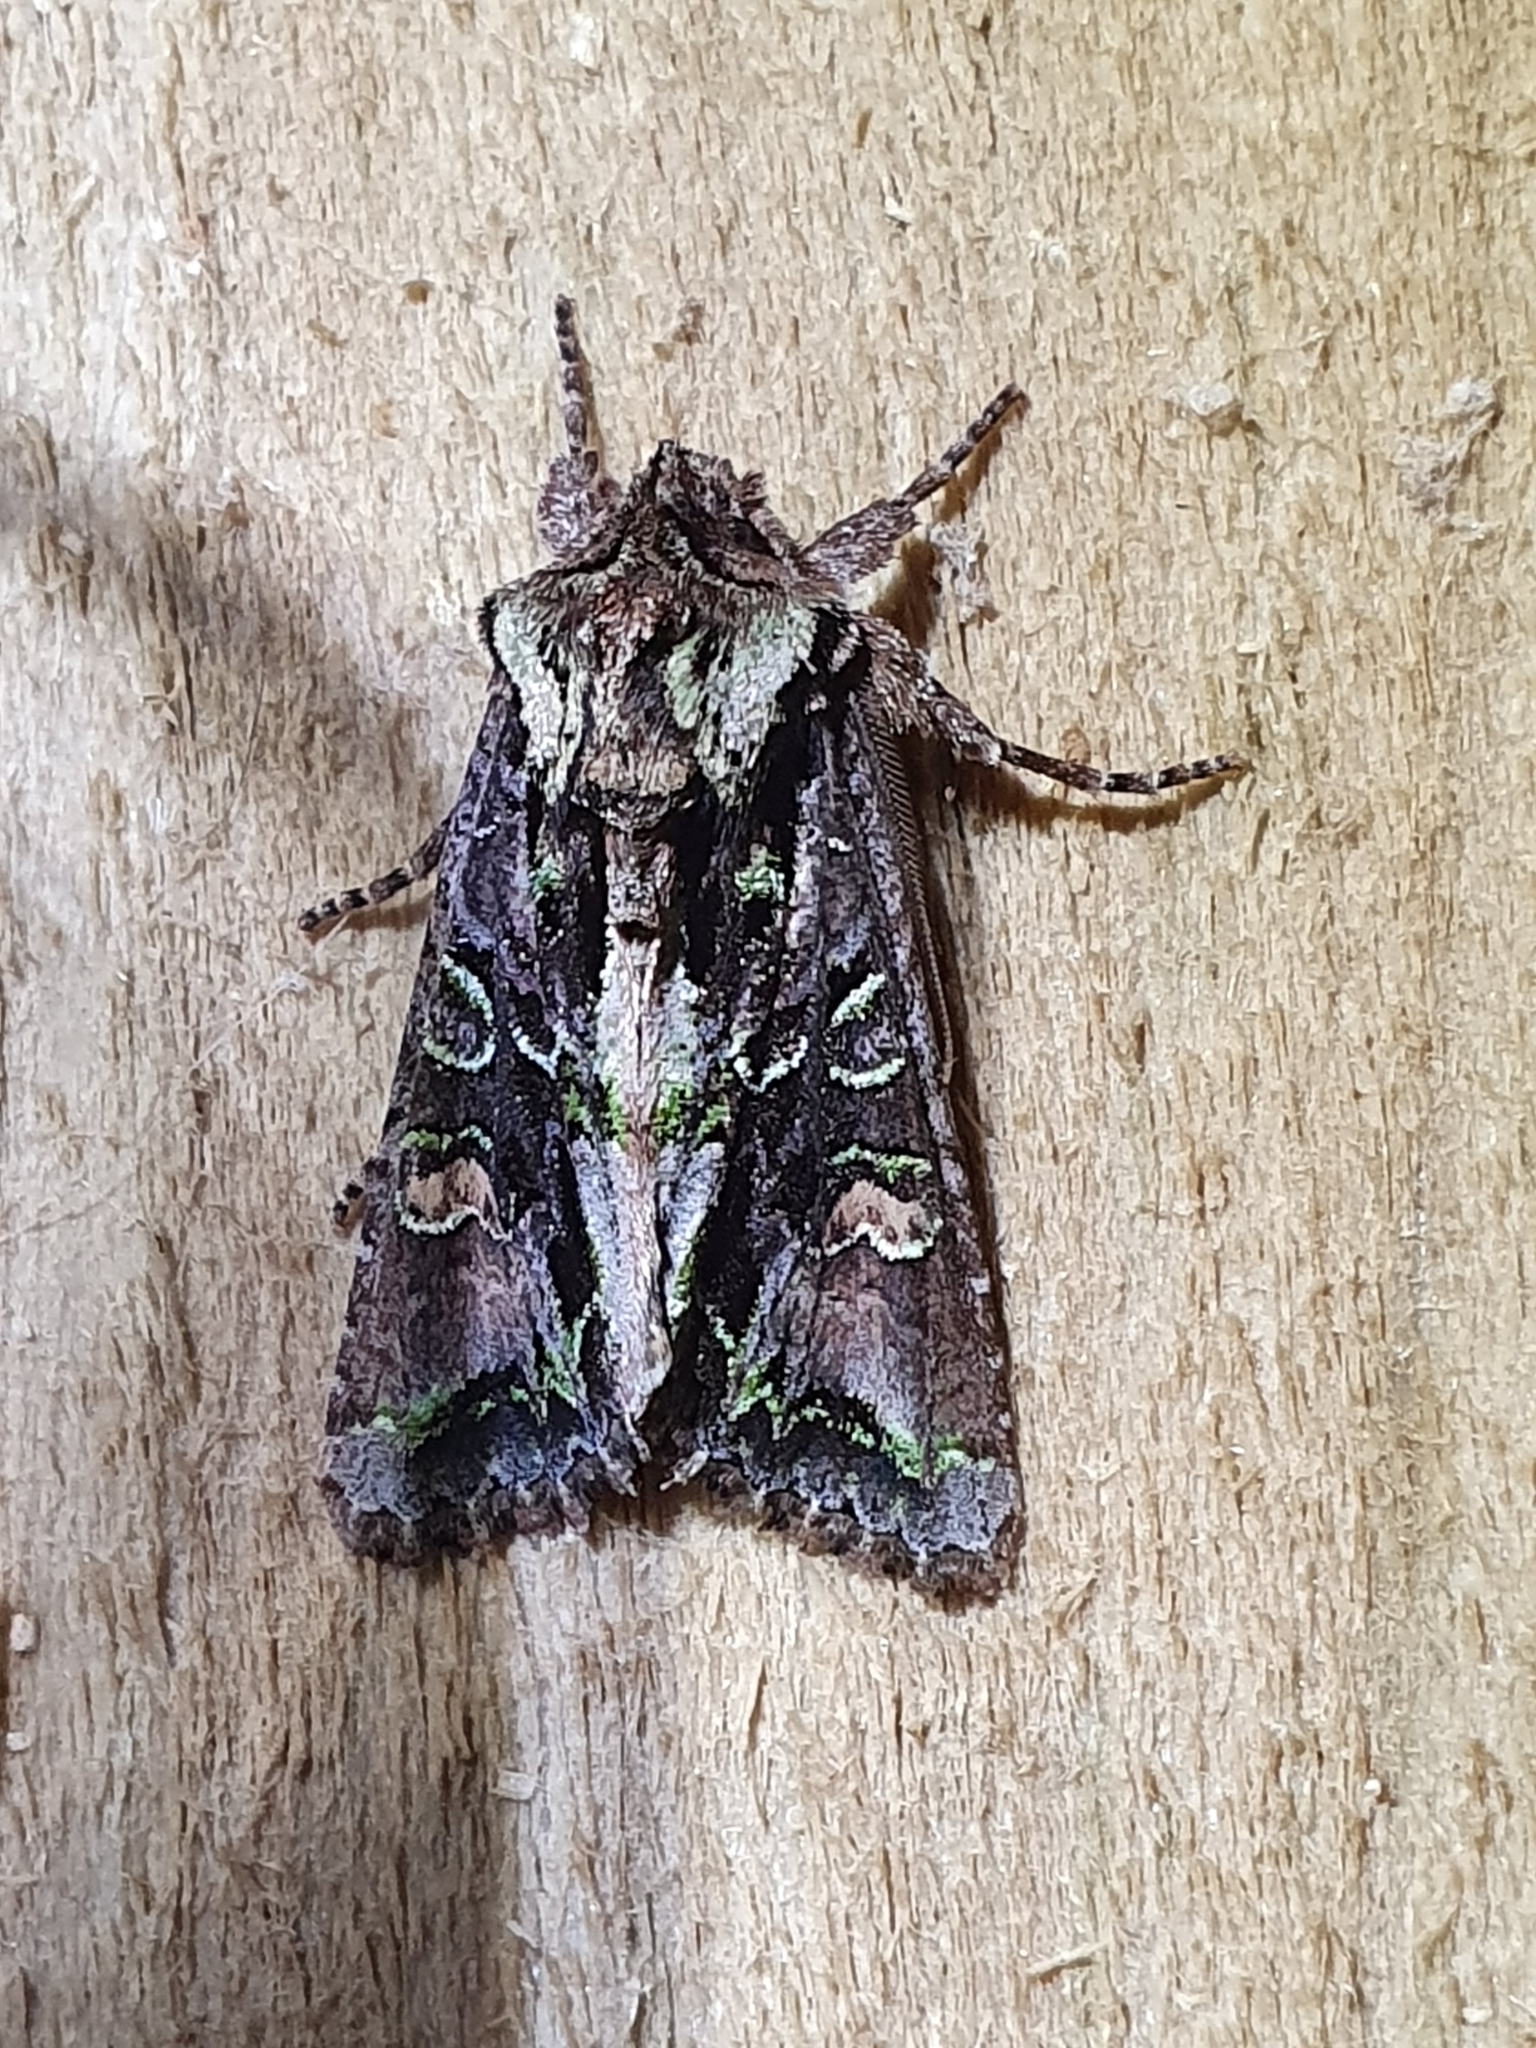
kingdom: Animalia
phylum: Arthropoda
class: Insecta
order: Lepidoptera
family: Noctuidae
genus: Ichneutica
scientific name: Ichneutica insignis
